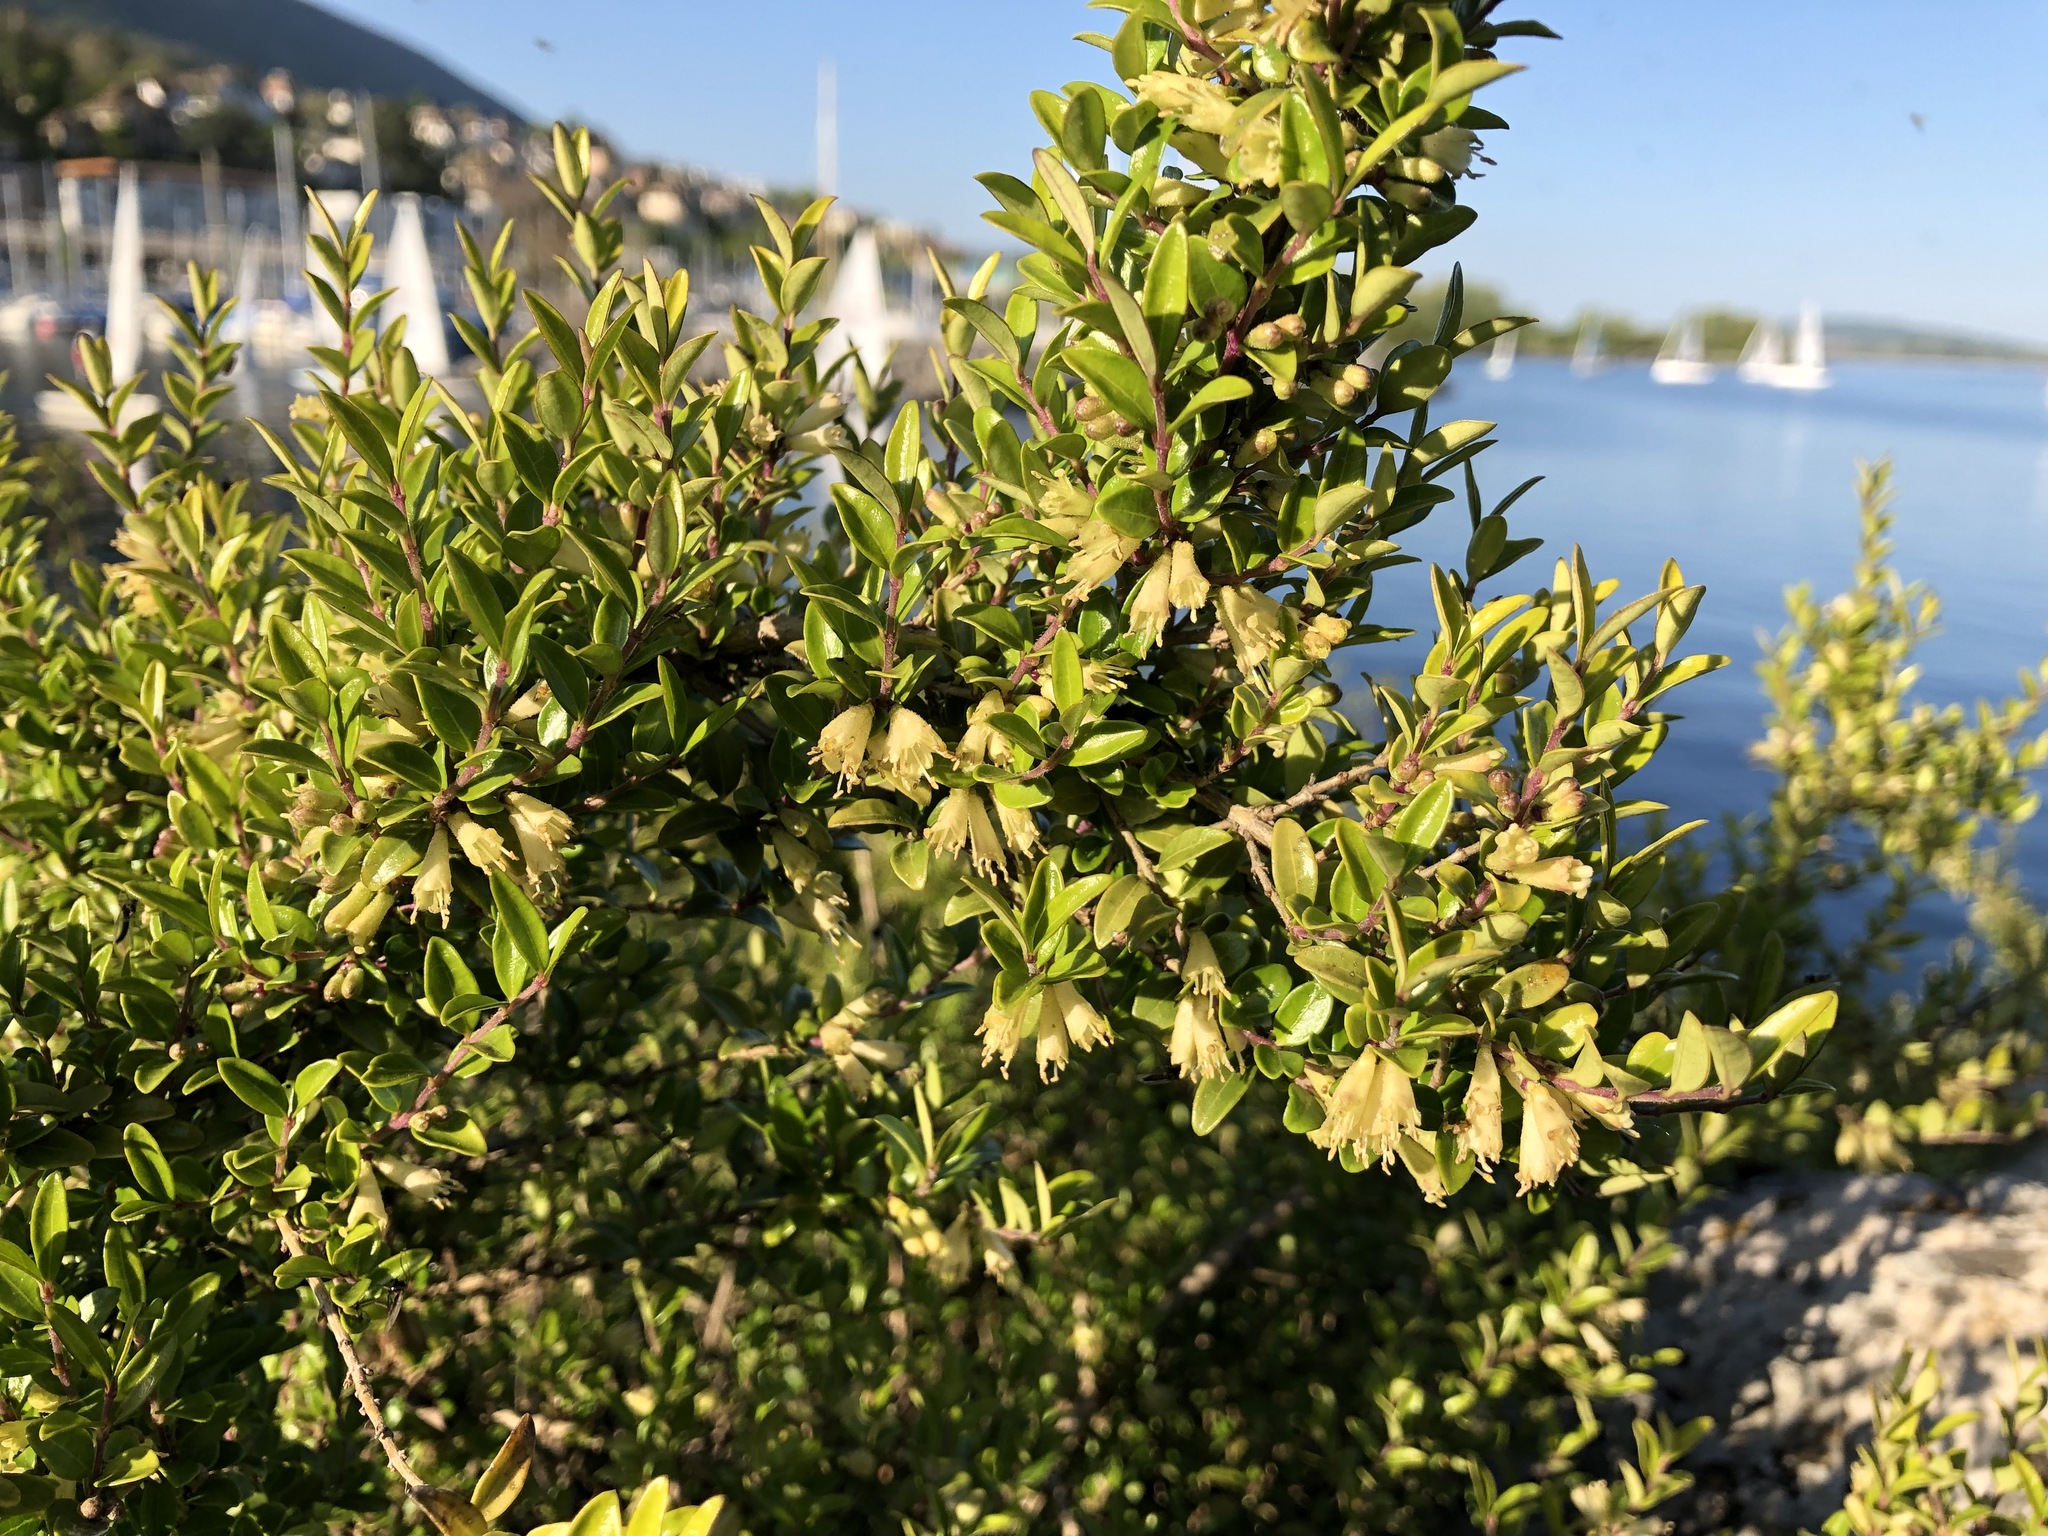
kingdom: Plantae
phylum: Tracheophyta
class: Magnoliopsida
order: Dipsacales
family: Caprifoliaceae
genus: Lonicera
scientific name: Lonicera pileata
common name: Box-leaved honeysuckle
